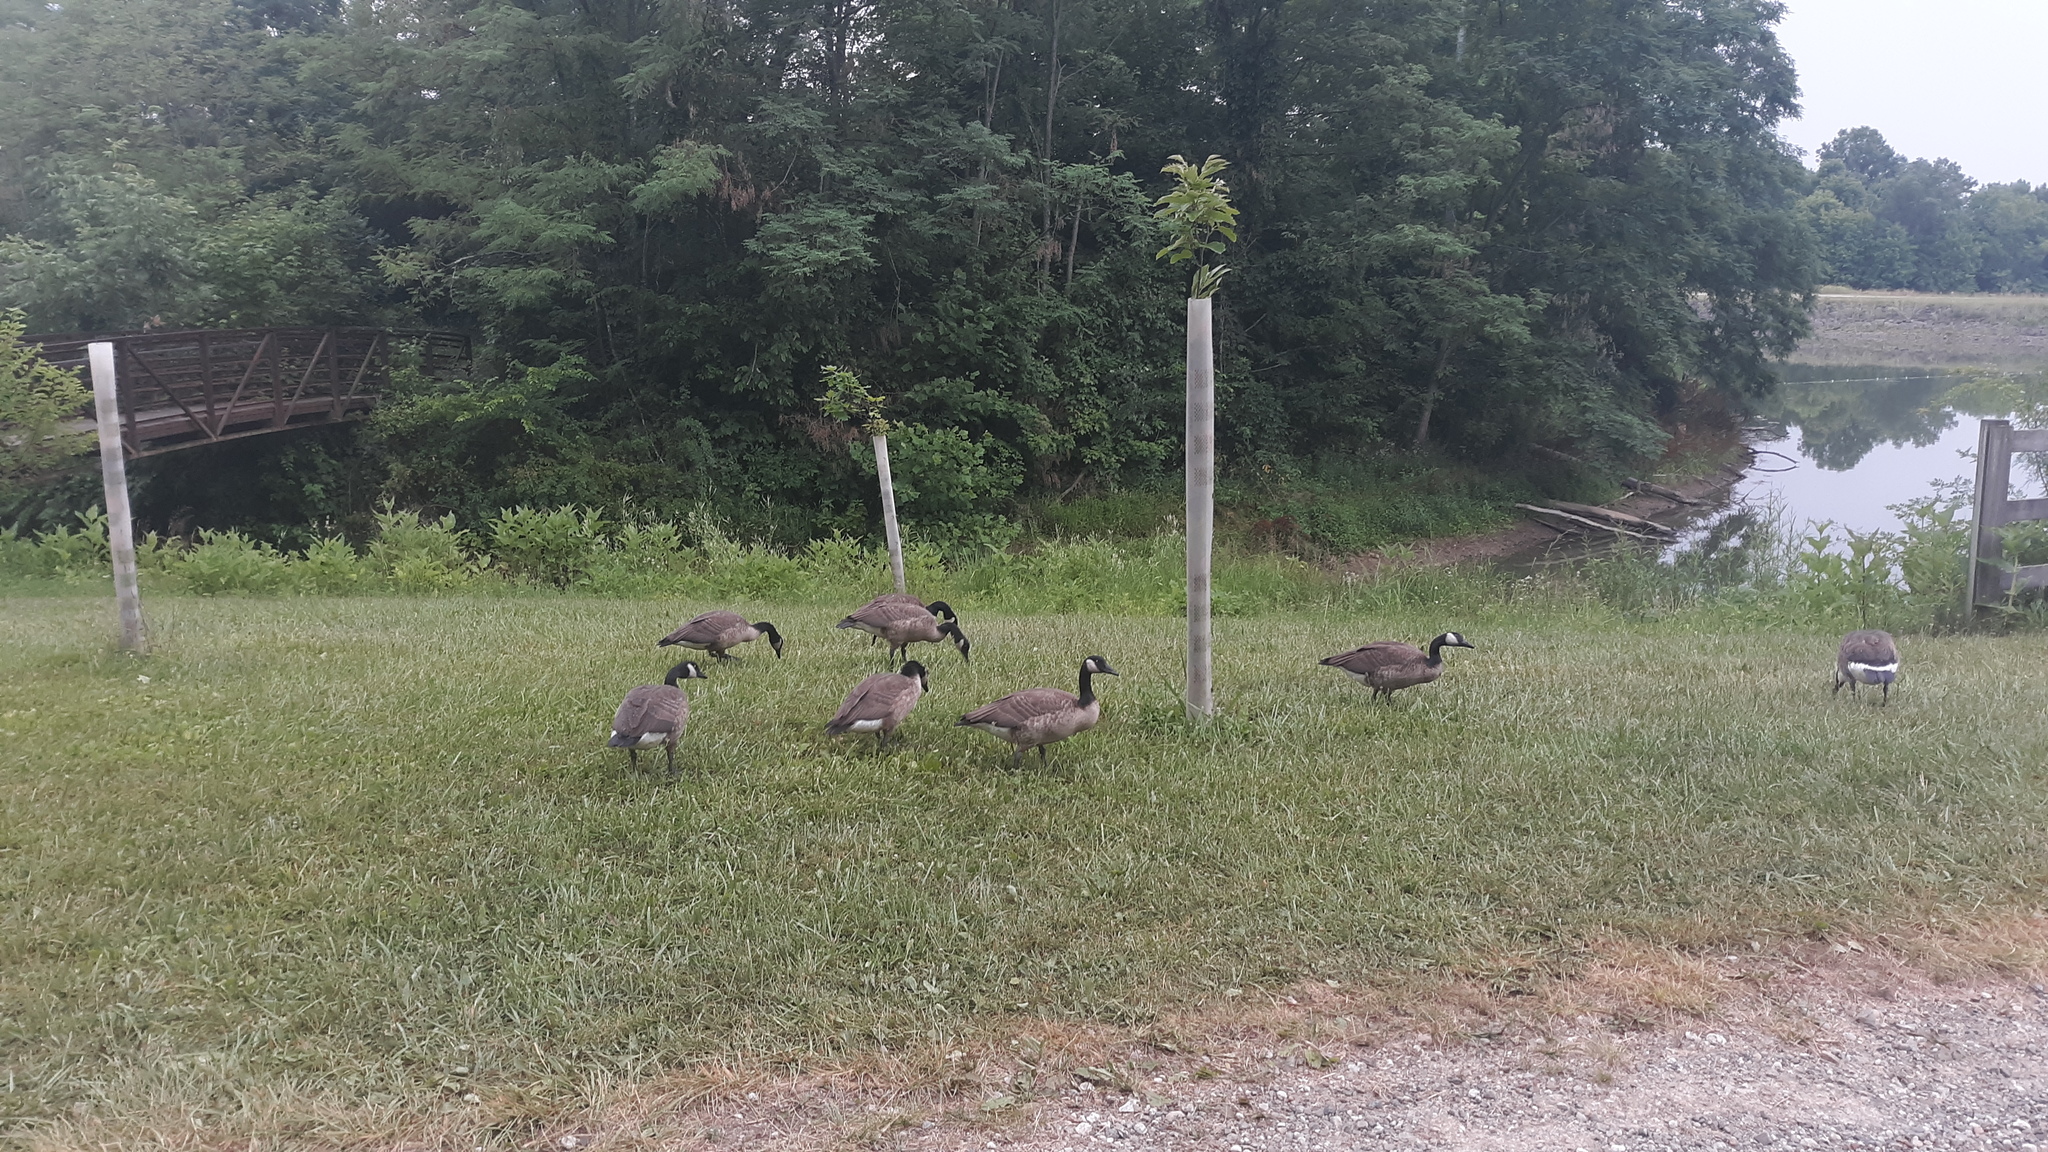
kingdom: Animalia
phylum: Chordata
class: Aves
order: Anseriformes
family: Anatidae
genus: Branta
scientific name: Branta canadensis
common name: Canada goose
